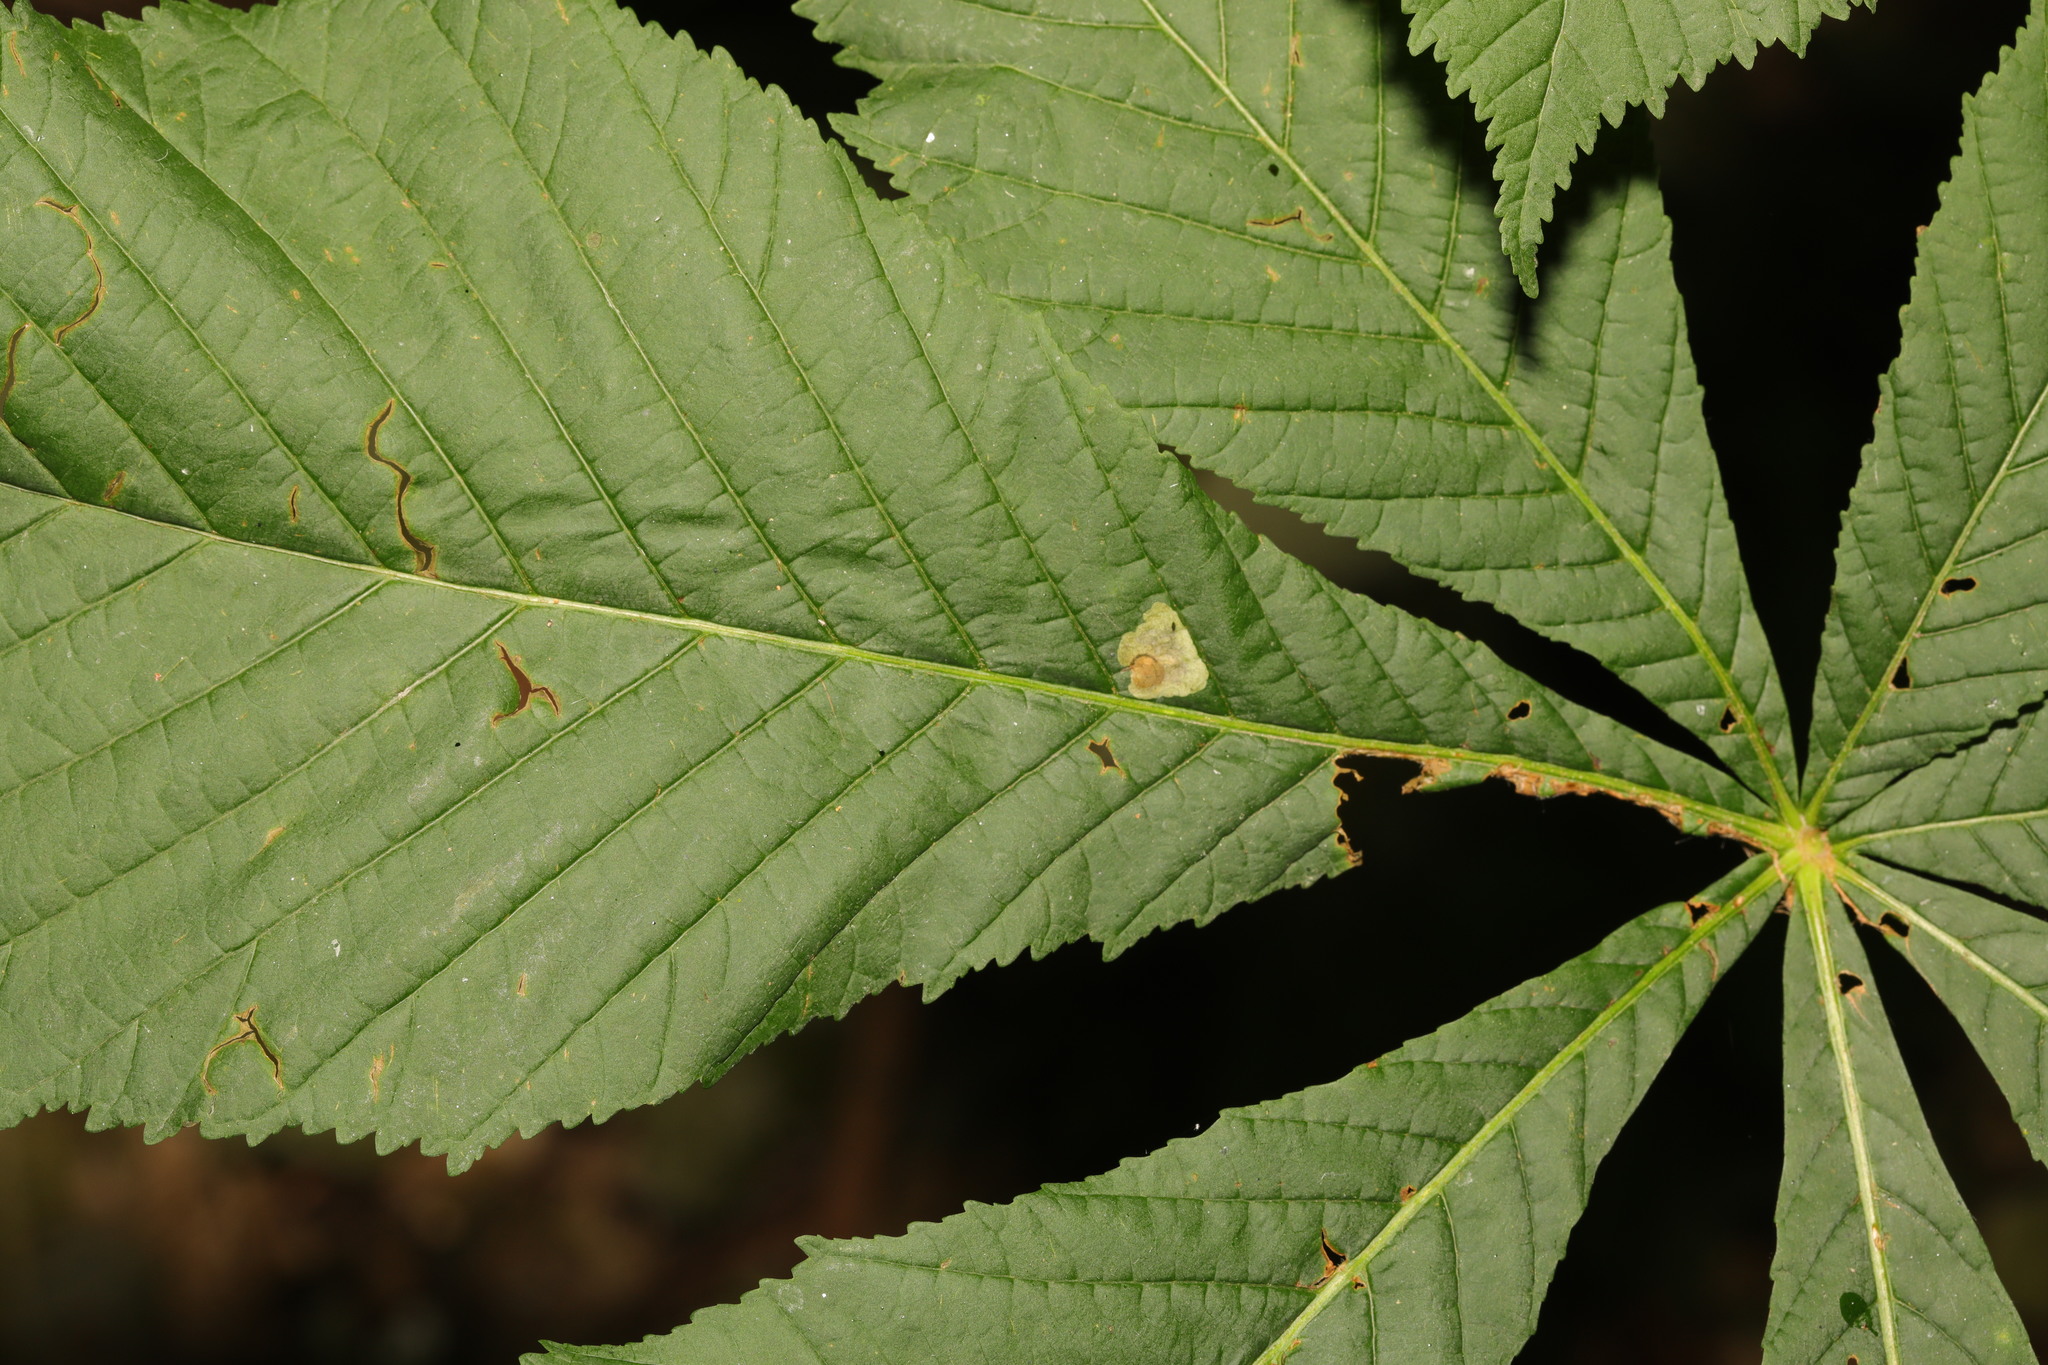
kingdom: Animalia
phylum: Arthropoda
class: Insecta
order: Lepidoptera
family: Gracillariidae
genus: Cameraria
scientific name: Cameraria ohridella
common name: Horse-chestnut leaf-miner
